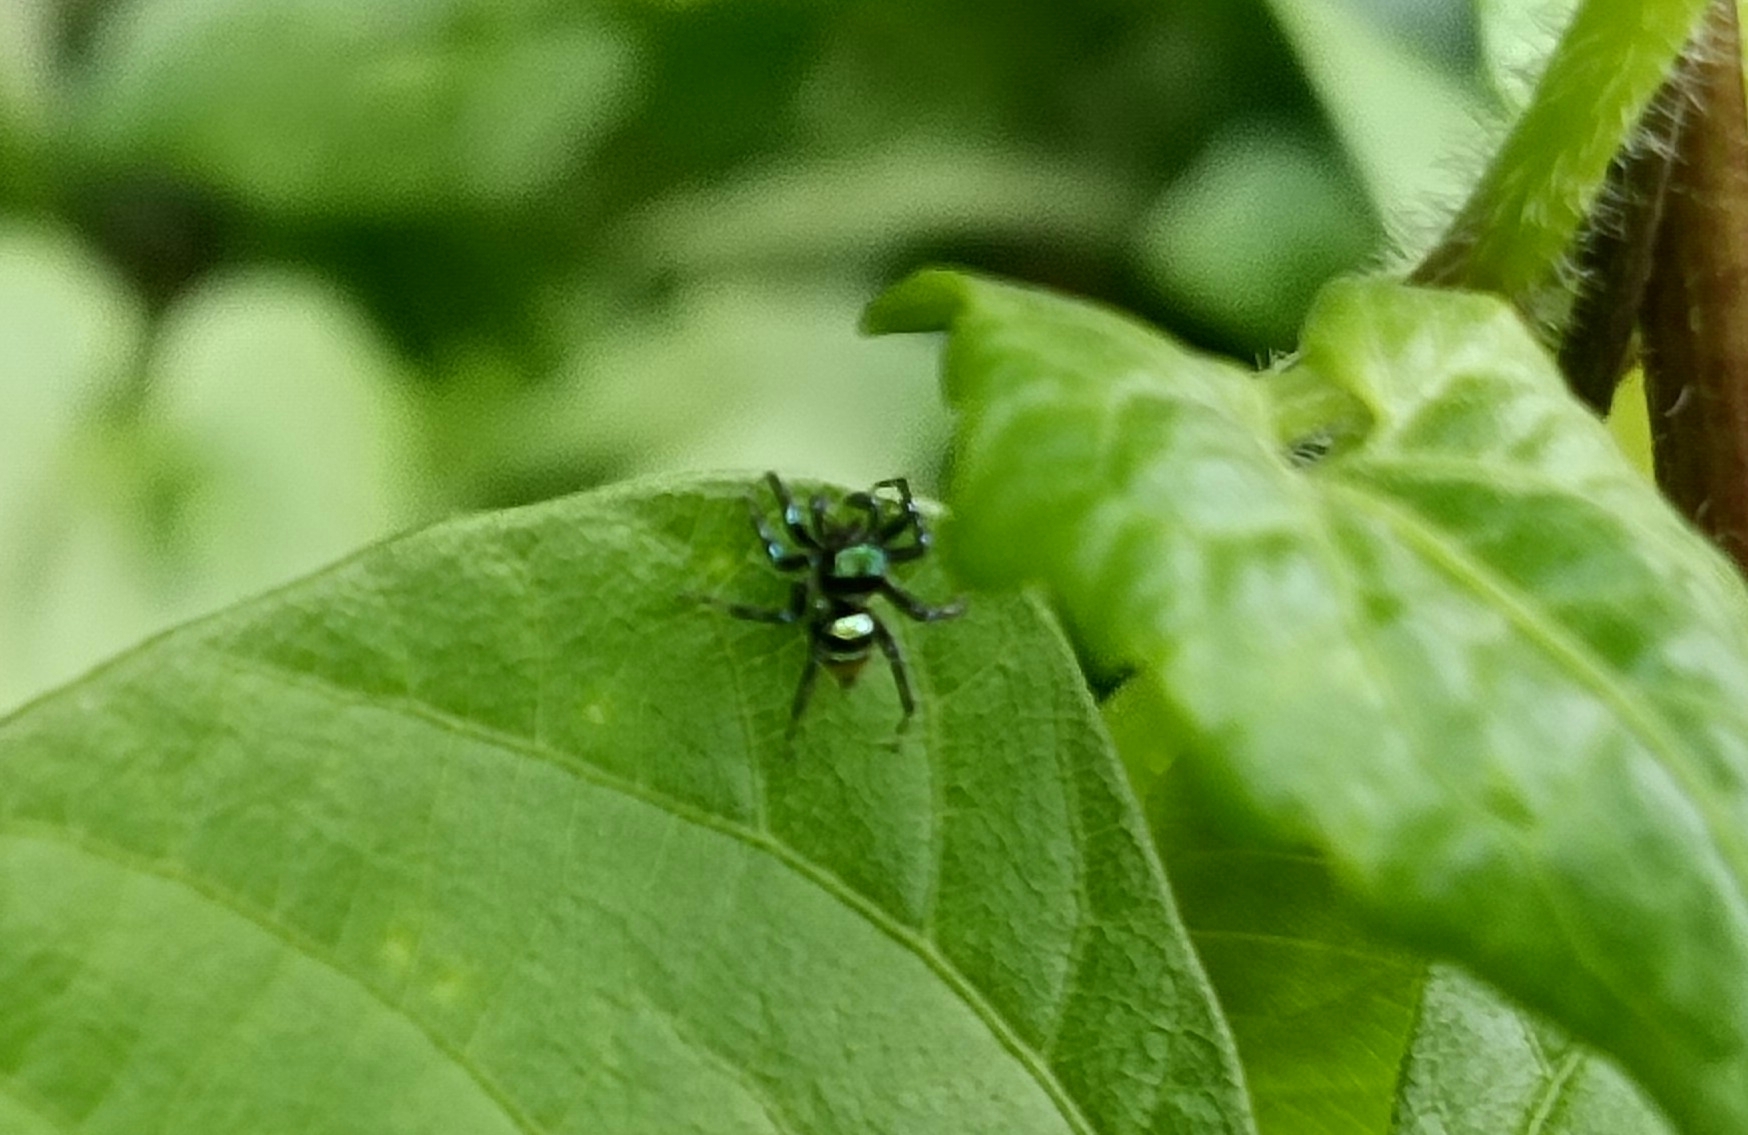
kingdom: Animalia
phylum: Arthropoda
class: Arachnida
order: Araneae
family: Salticidae
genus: Phintella
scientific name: Phintella vittata
